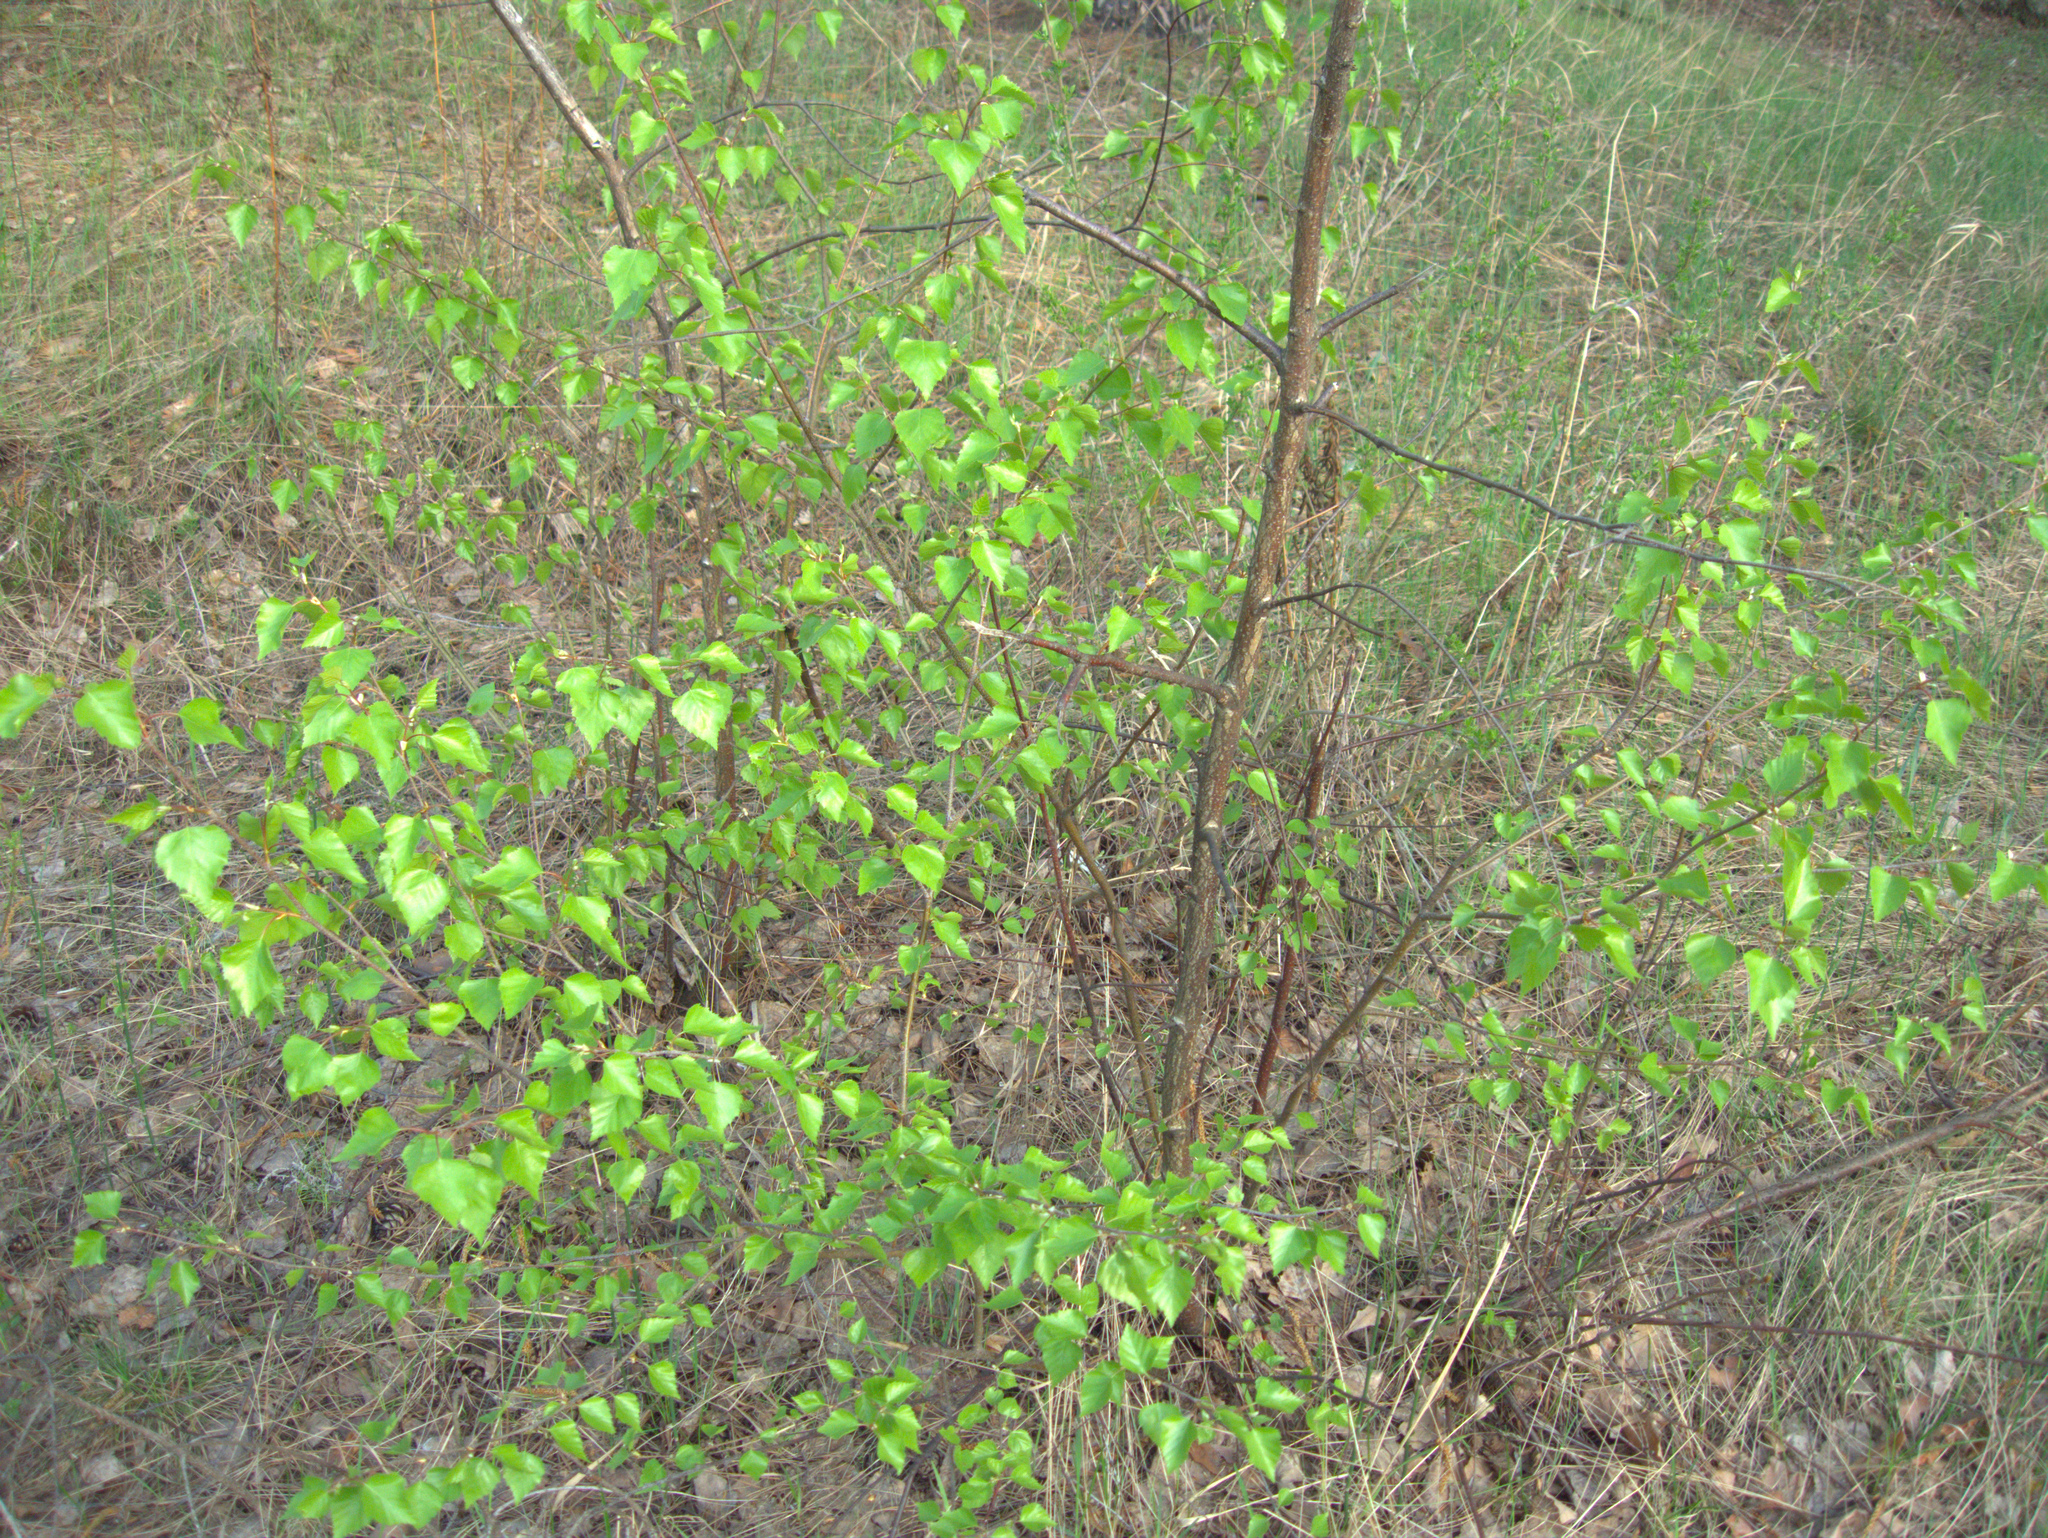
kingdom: Plantae
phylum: Tracheophyta
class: Magnoliopsida
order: Fagales
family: Betulaceae
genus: Betula
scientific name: Betula pendula
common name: Silver birch
